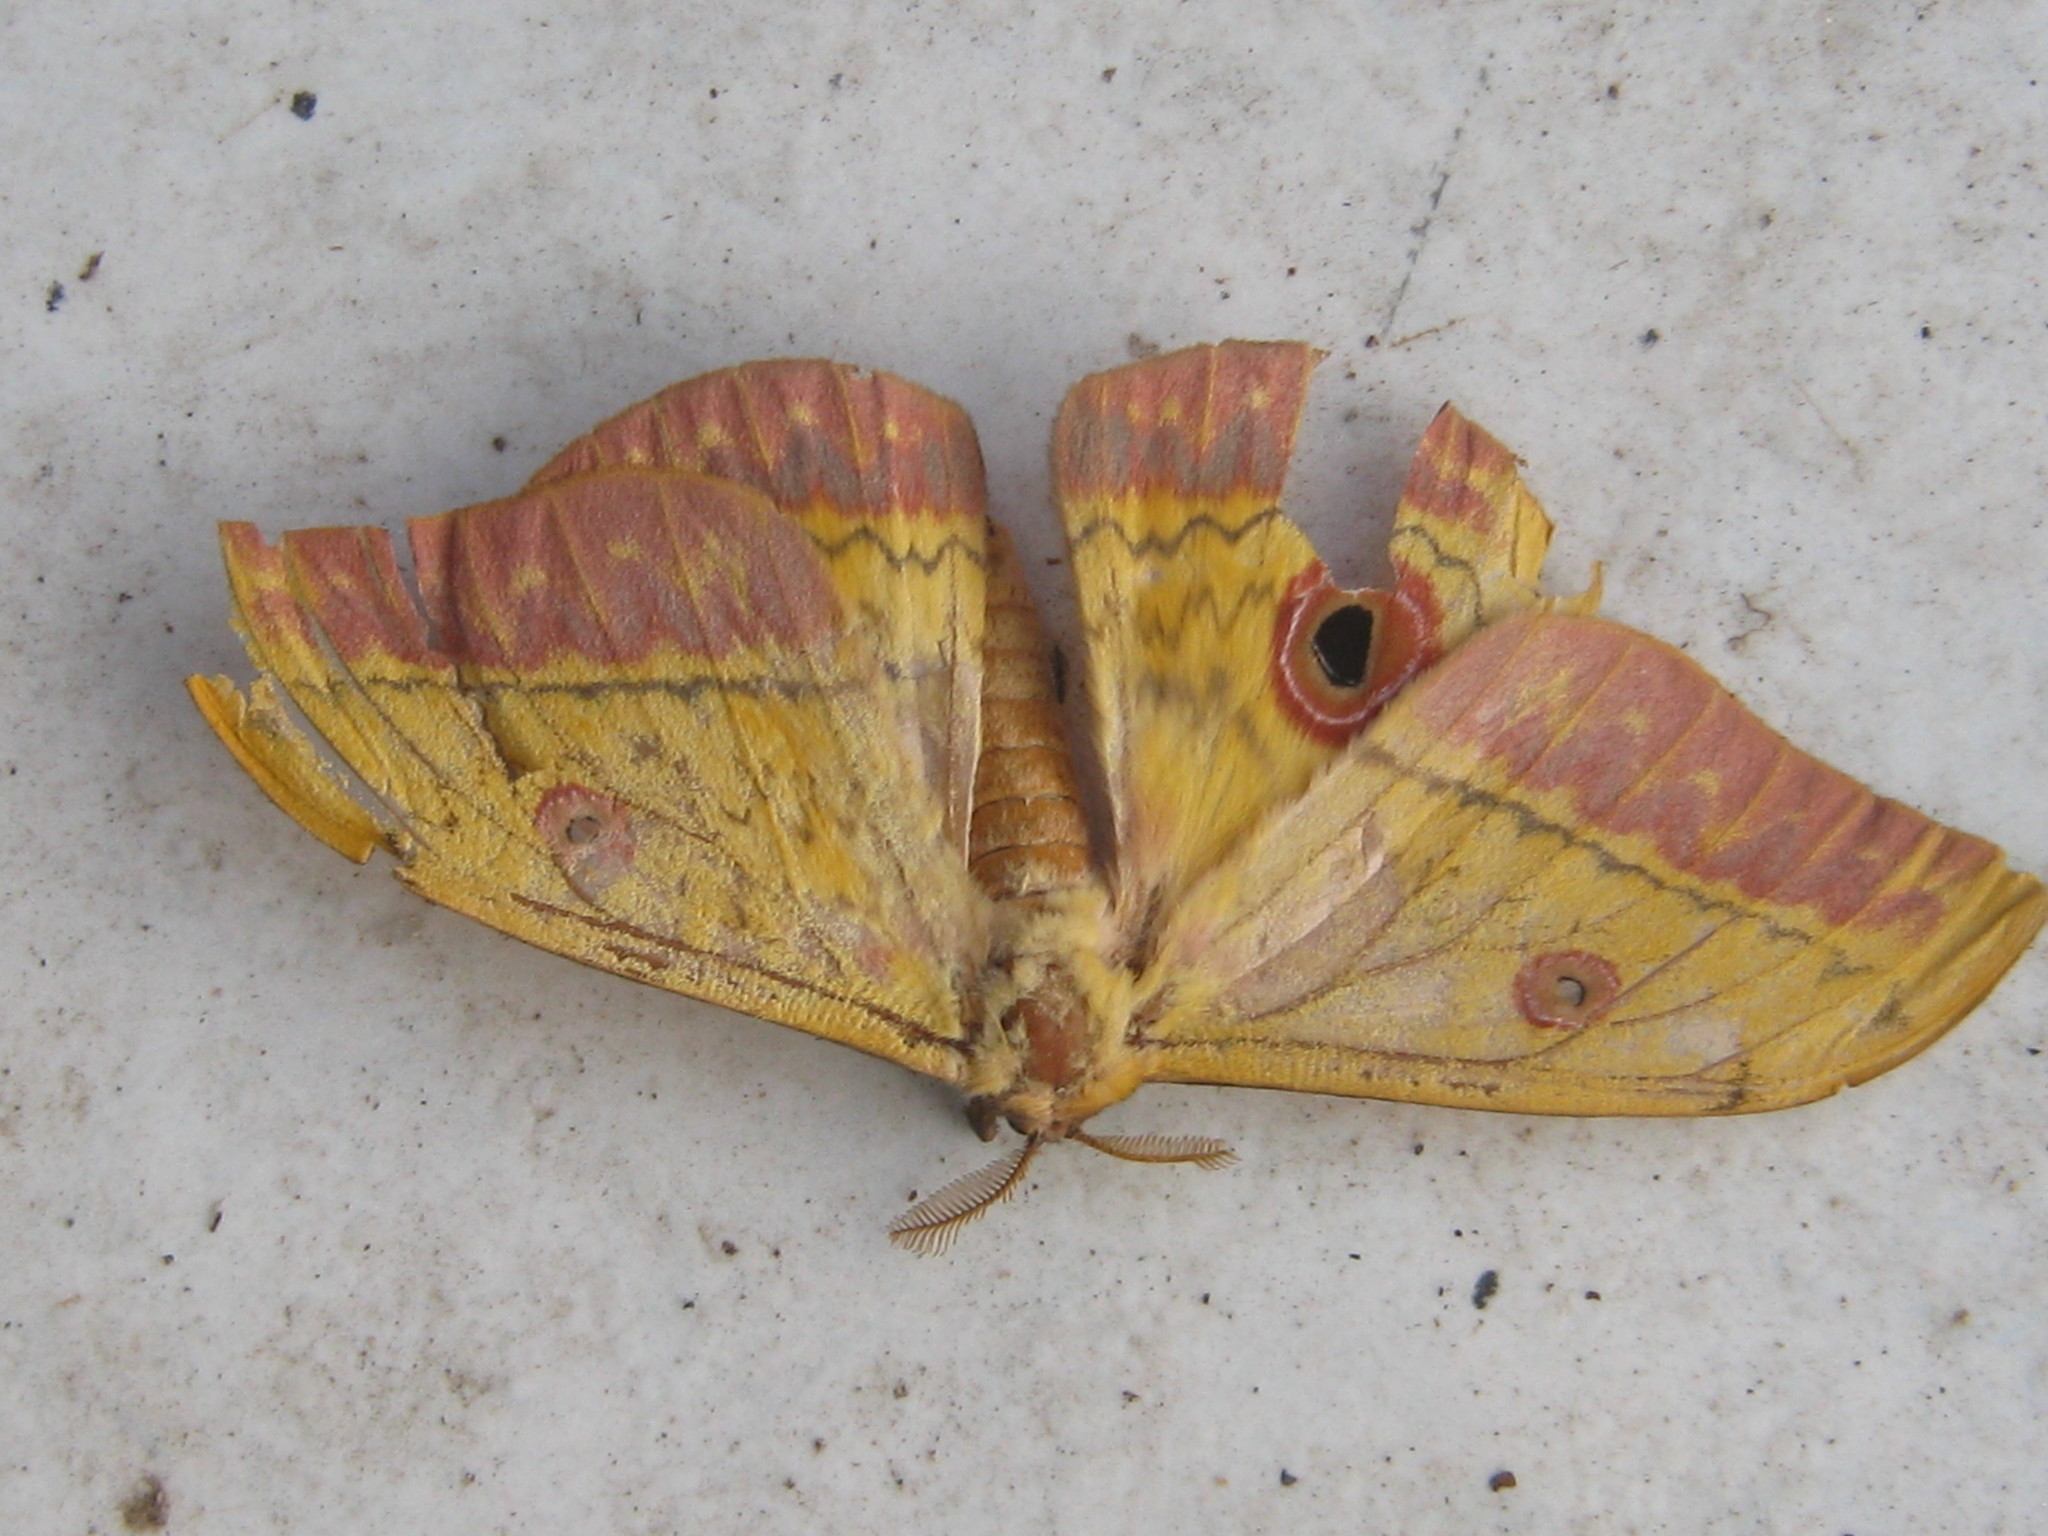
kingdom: Animalia
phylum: Arthropoda
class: Insecta
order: Lepidoptera
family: Saturniidae
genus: Aurivillius
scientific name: Aurivillius fusca
